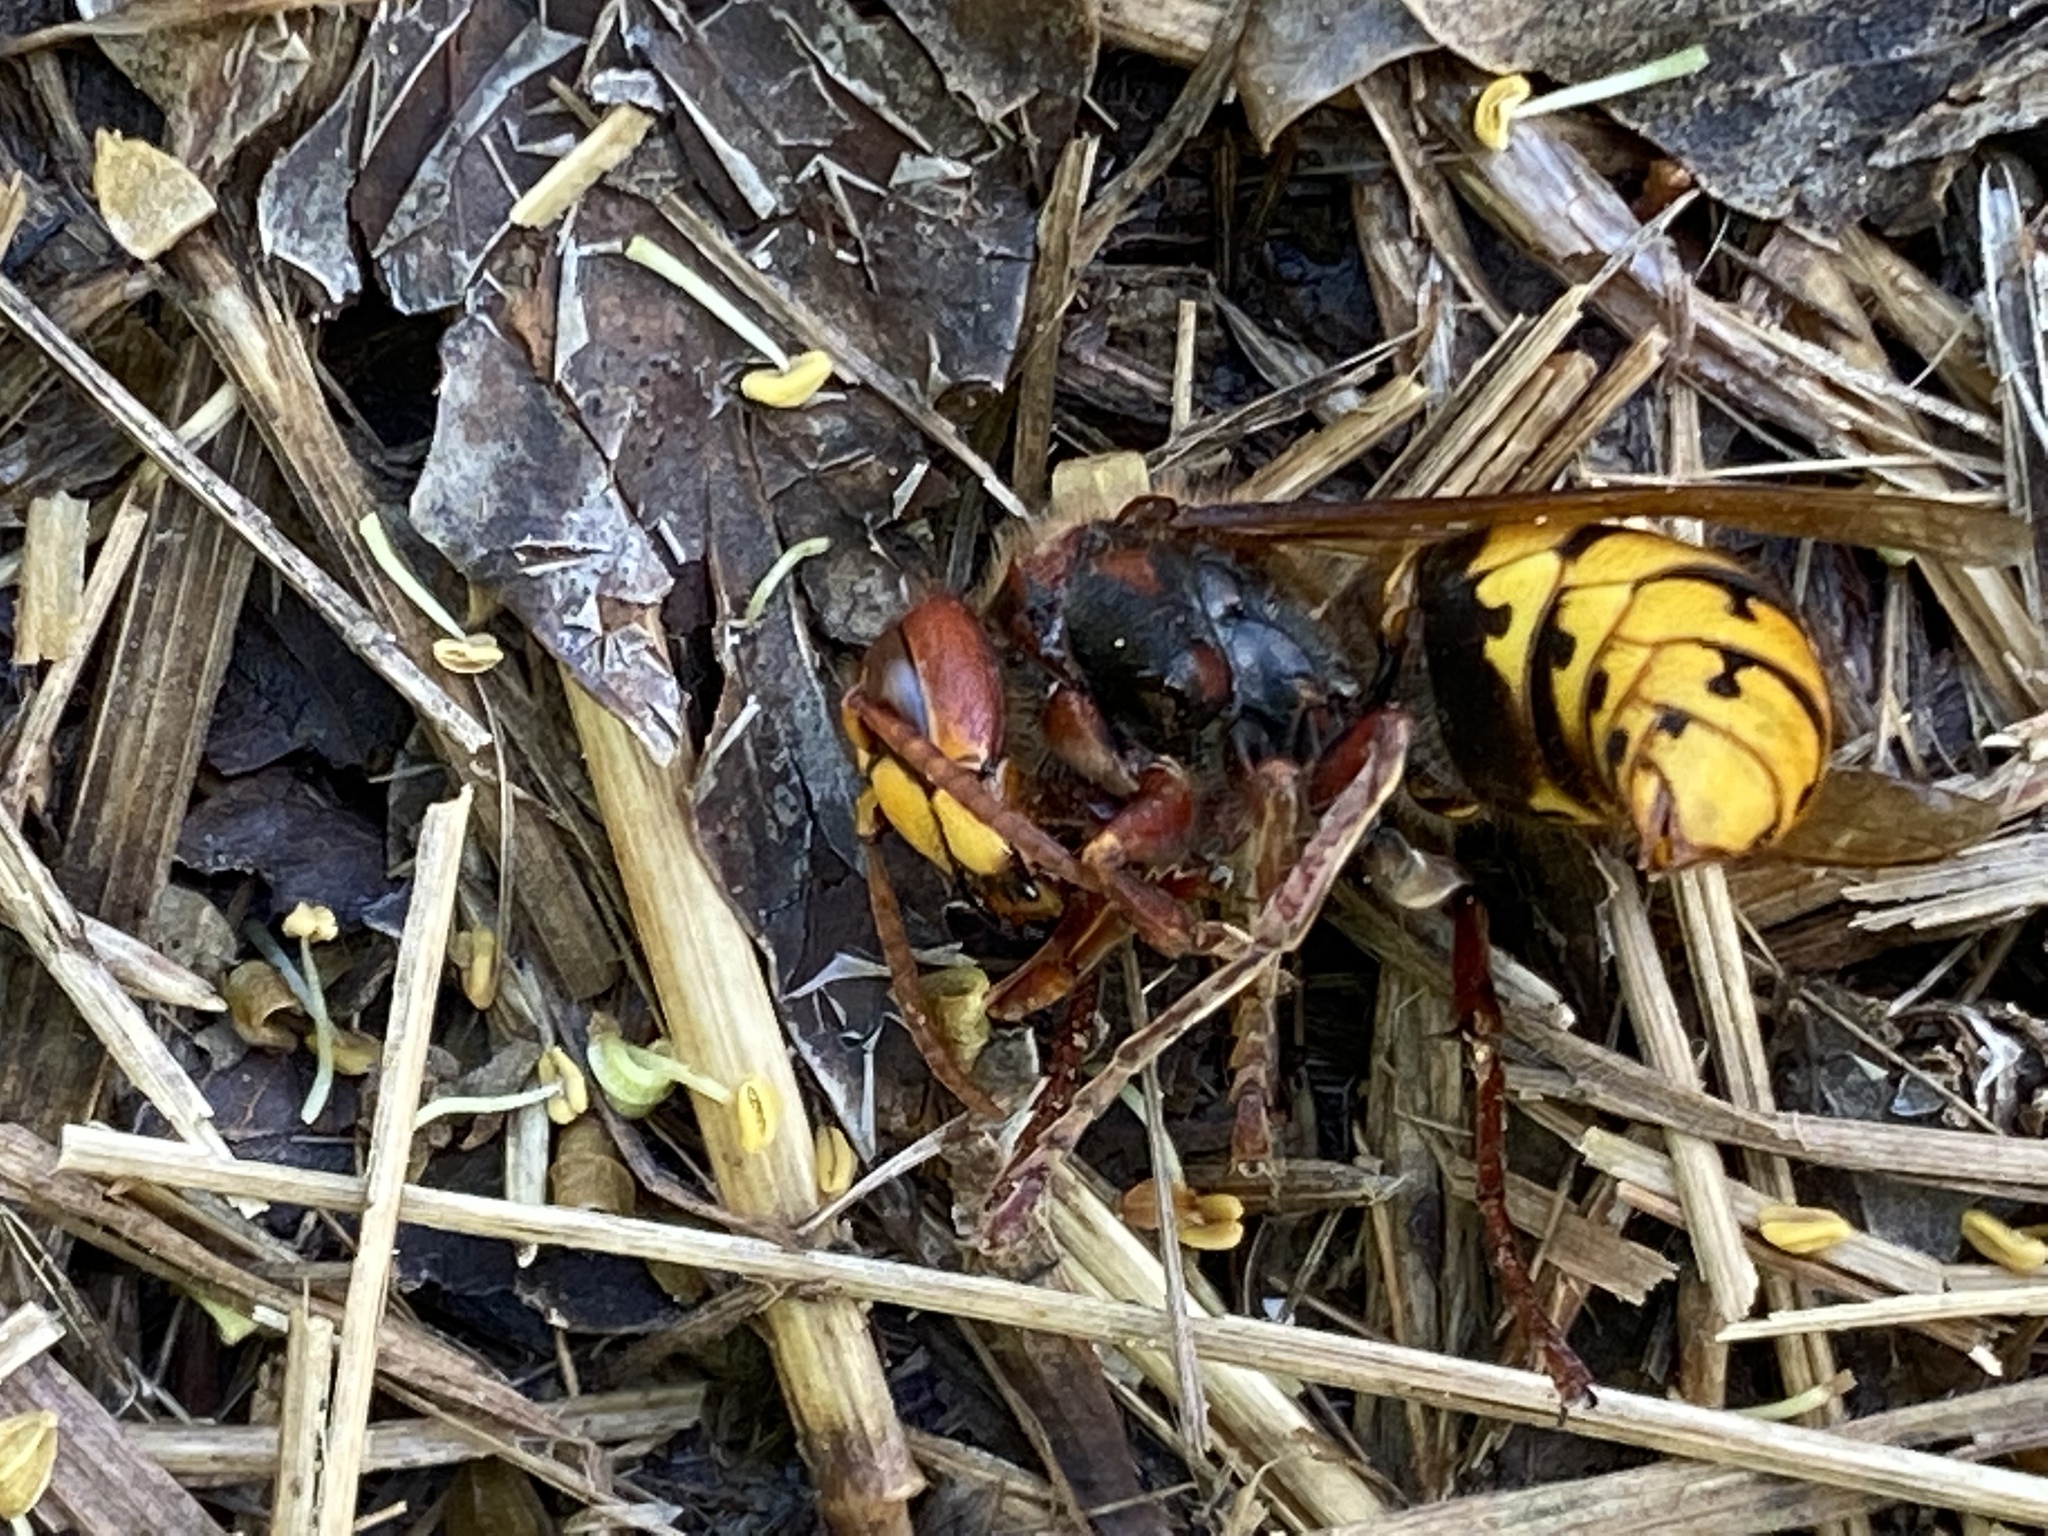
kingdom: Animalia
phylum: Arthropoda
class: Insecta
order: Hymenoptera
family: Vespidae
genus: Vespa
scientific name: Vespa crabro
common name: Hornet
